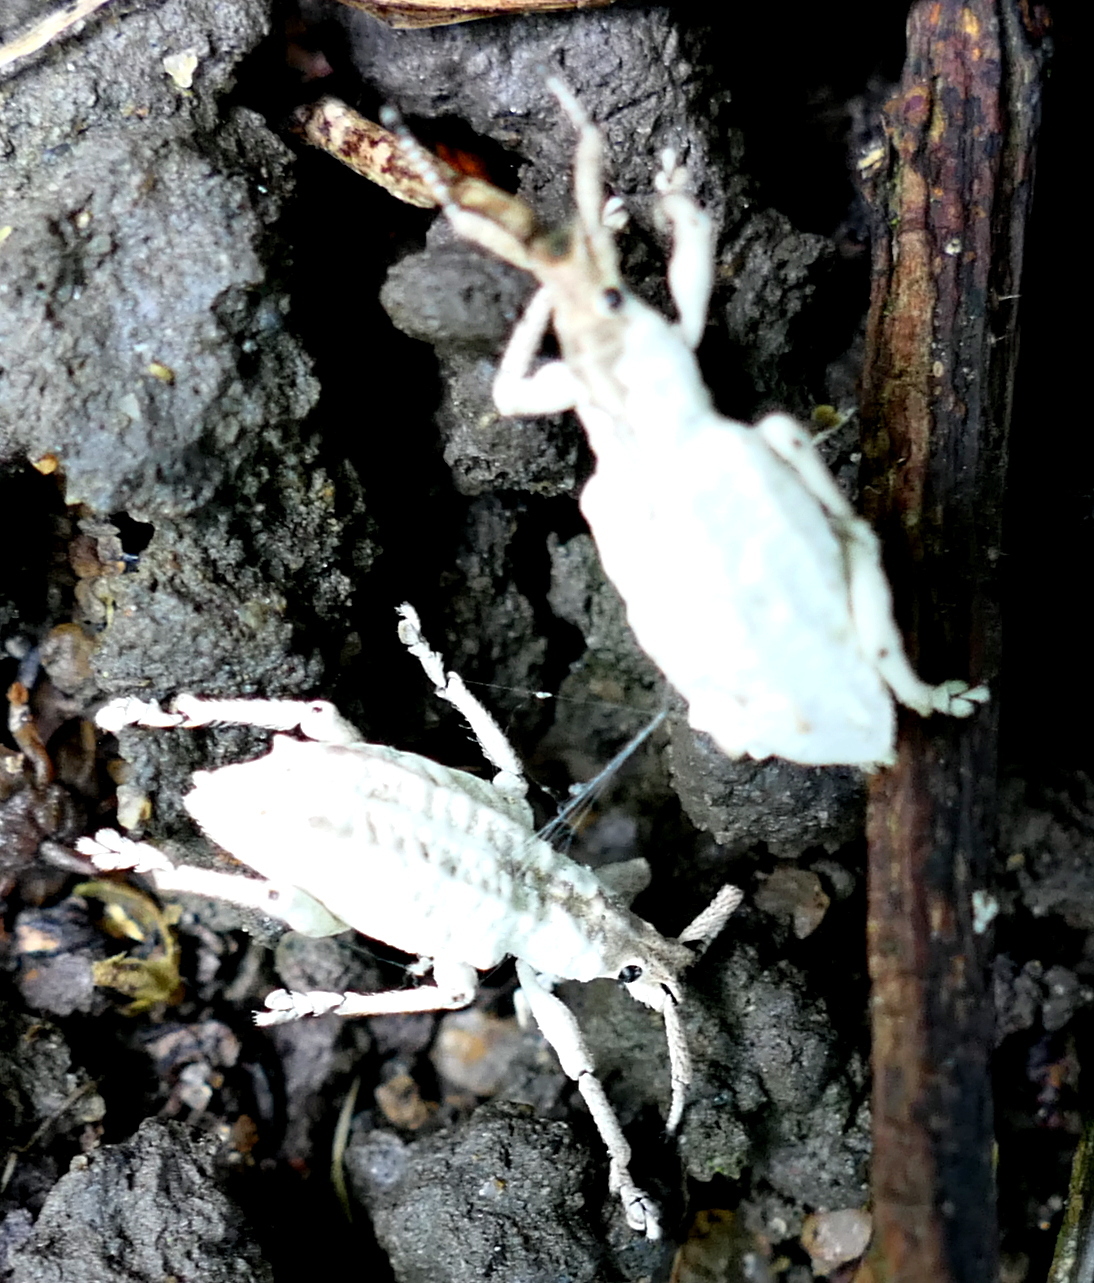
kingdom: Animalia
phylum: Arthropoda
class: Insecta
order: Coleoptera
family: Curculionidae
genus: Compsus
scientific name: Compsus niveus
